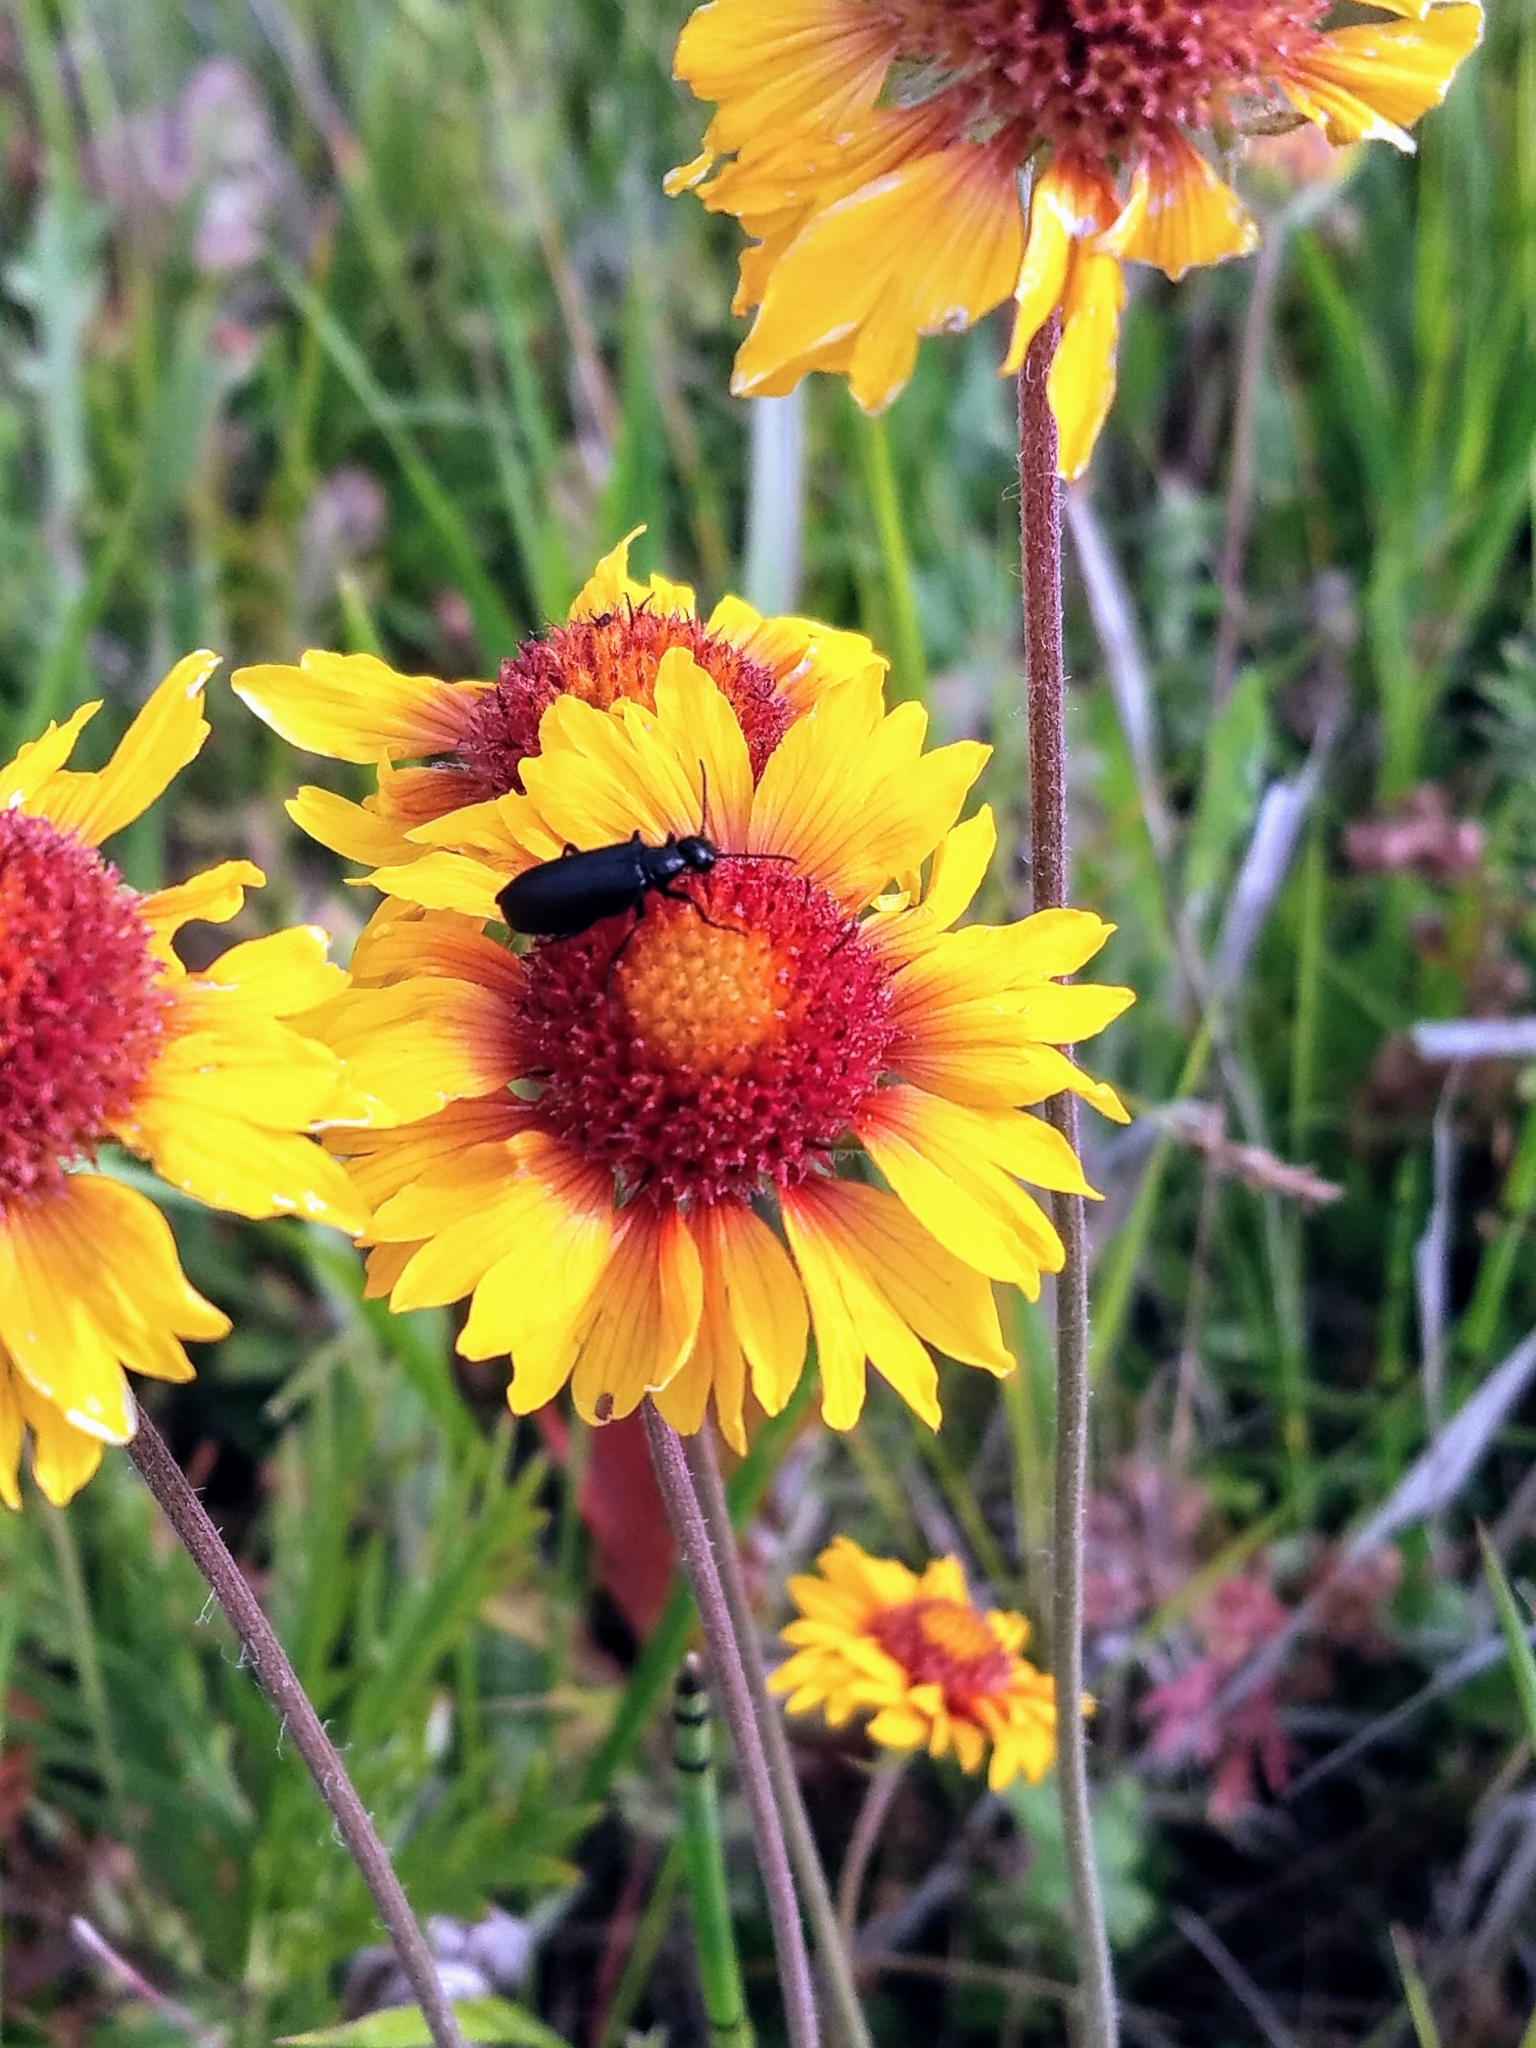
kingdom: Plantae
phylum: Tracheophyta
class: Magnoliopsida
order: Asterales
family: Asteraceae
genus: Gaillardia
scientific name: Gaillardia aristata
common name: Blanket-flower
